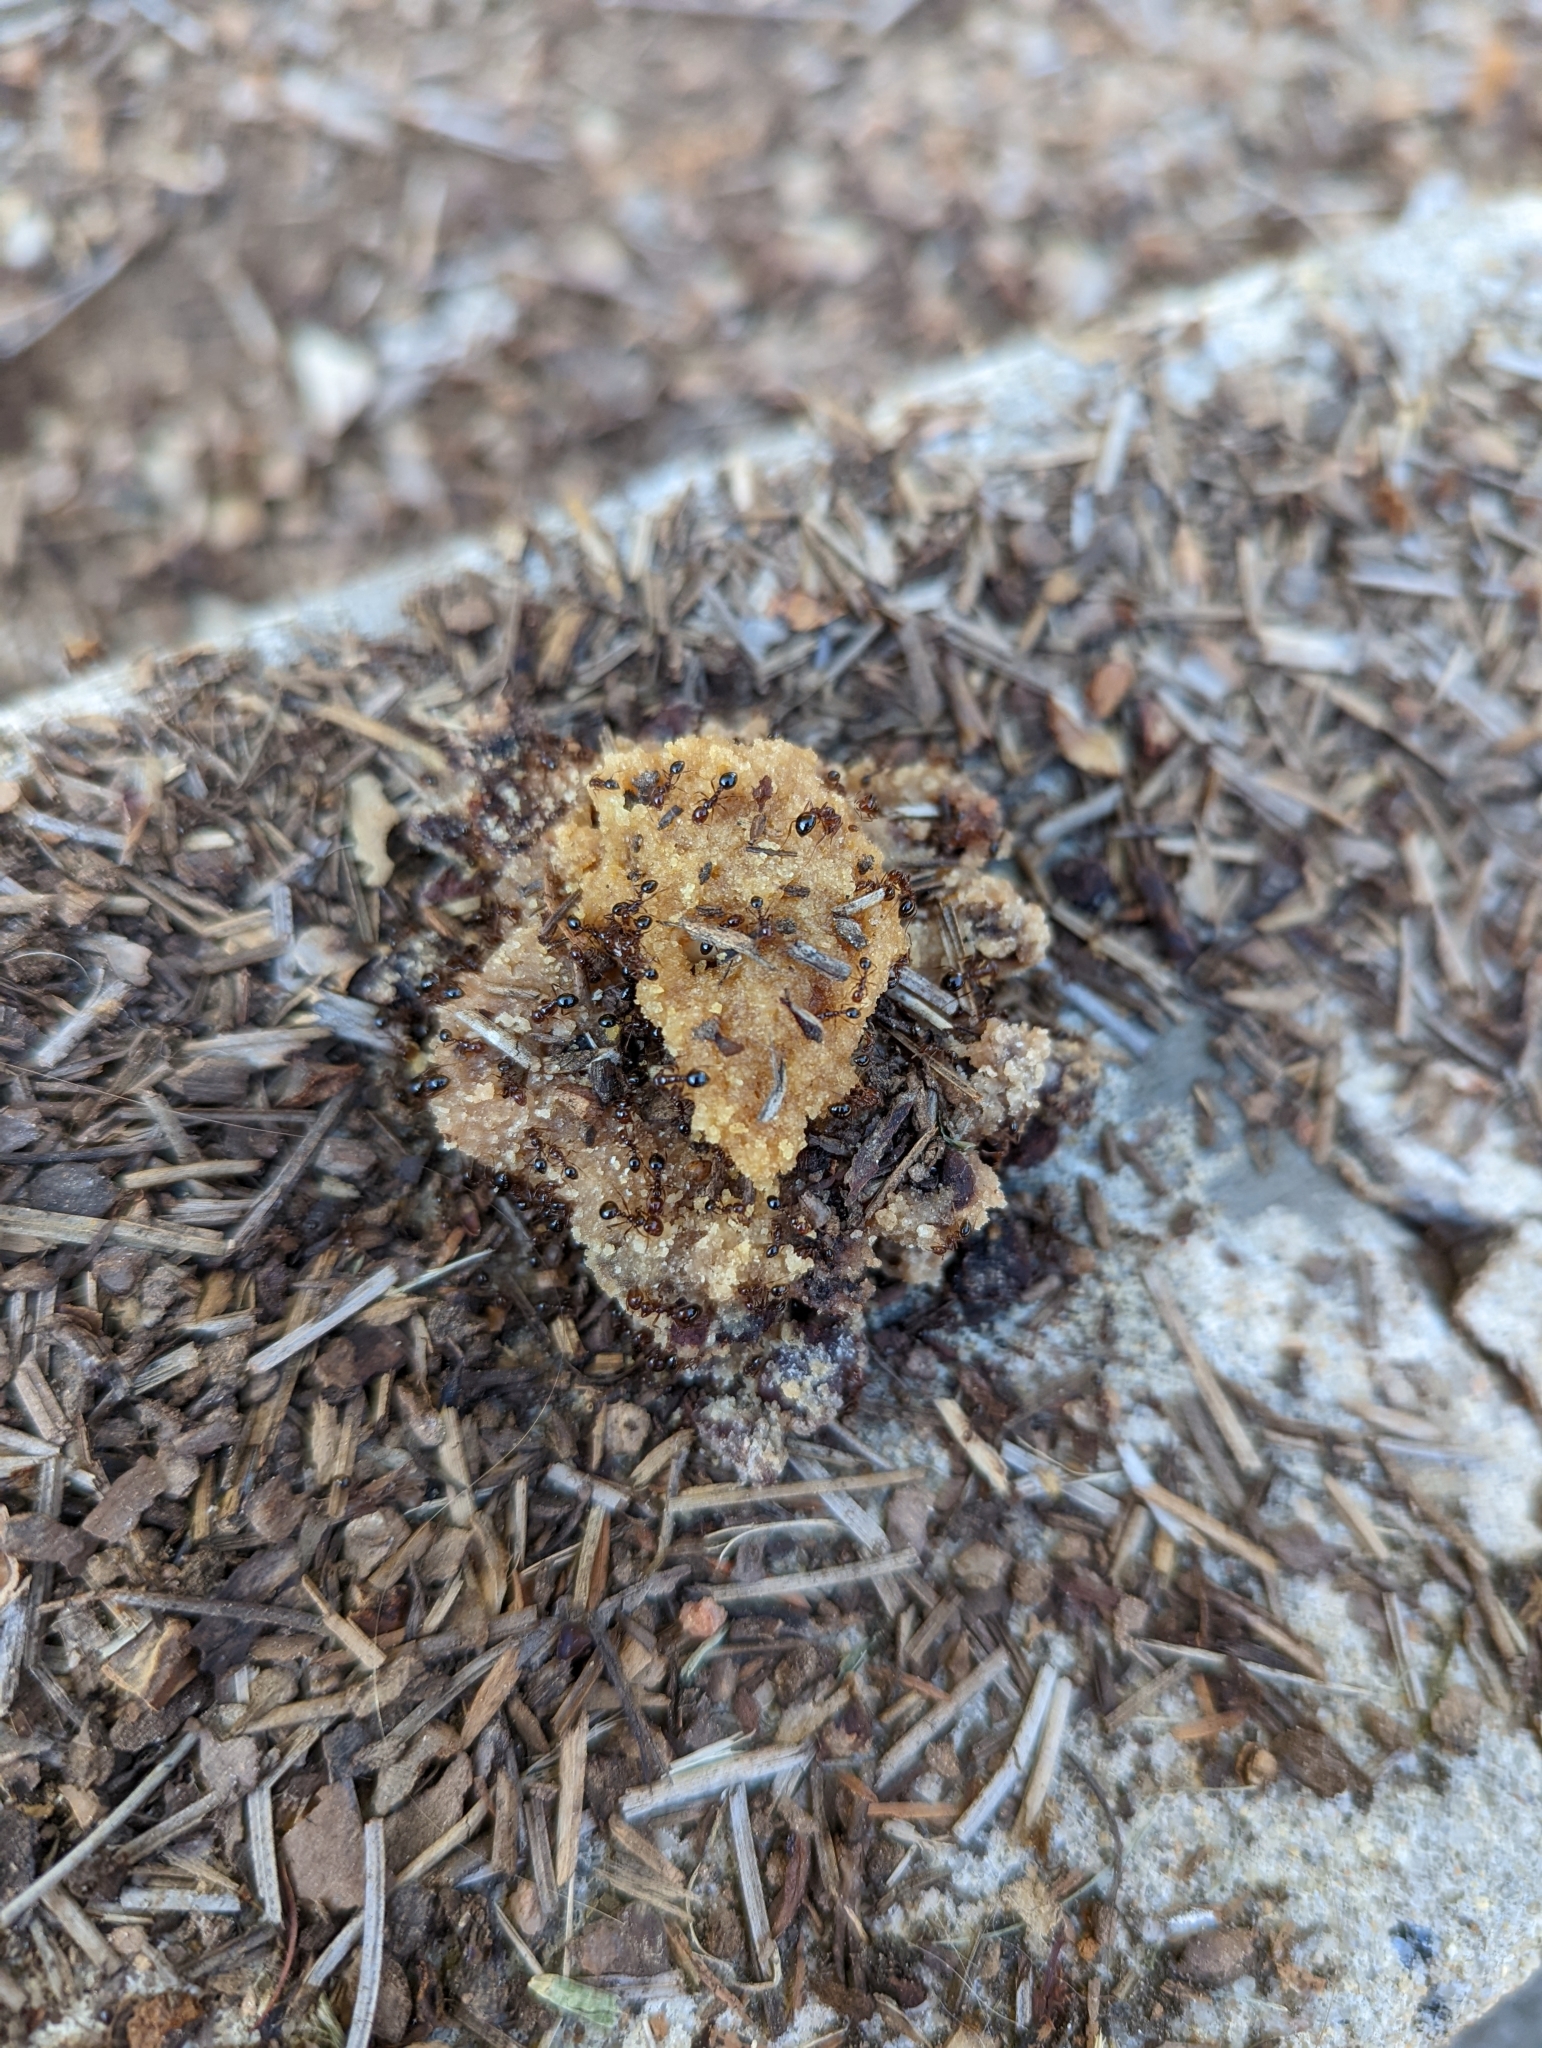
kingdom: Animalia
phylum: Arthropoda
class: Insecta
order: Hymenoptera
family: Formicidae
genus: Solenopsis
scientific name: Solenopsis invicta
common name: Red imported fire ant
